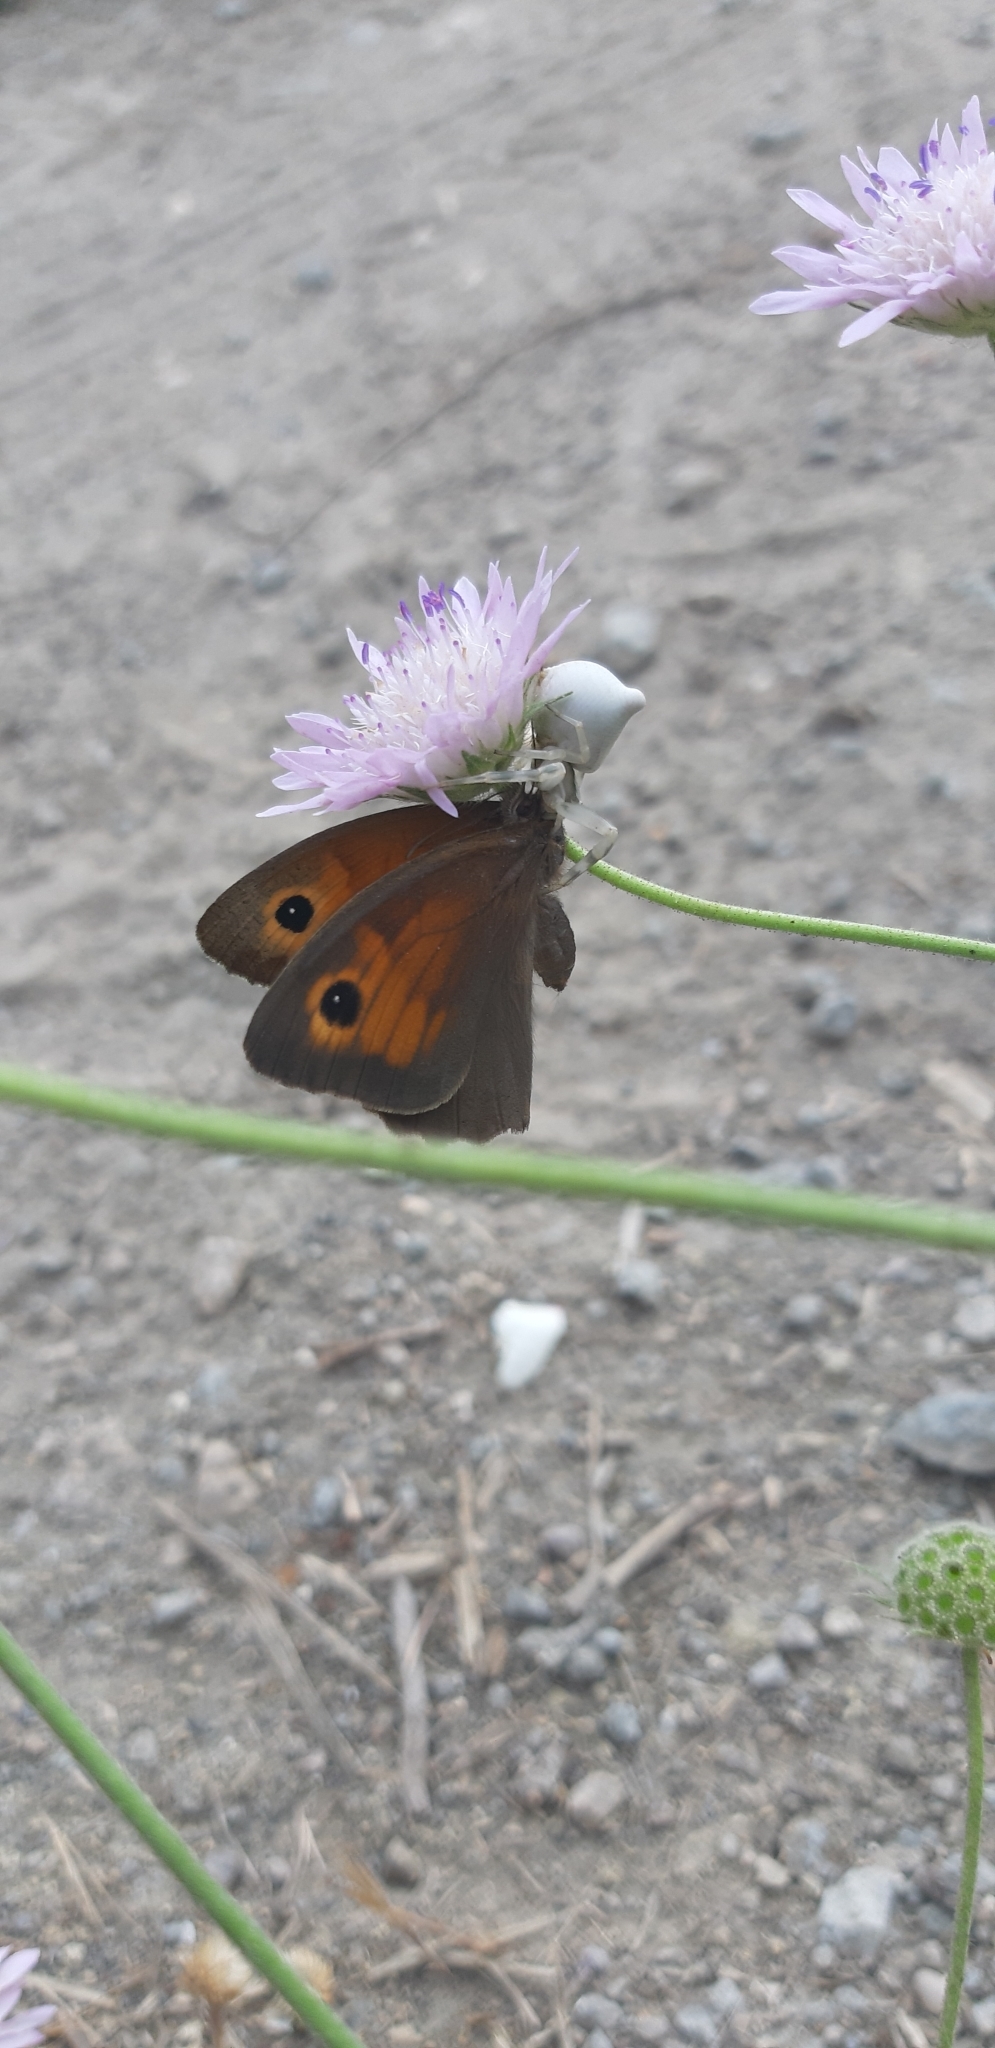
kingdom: Animalia
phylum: Arthropoda
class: Arachnida
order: Araneae
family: Thomisidae
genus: Thomisus
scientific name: Thomisus onustus
